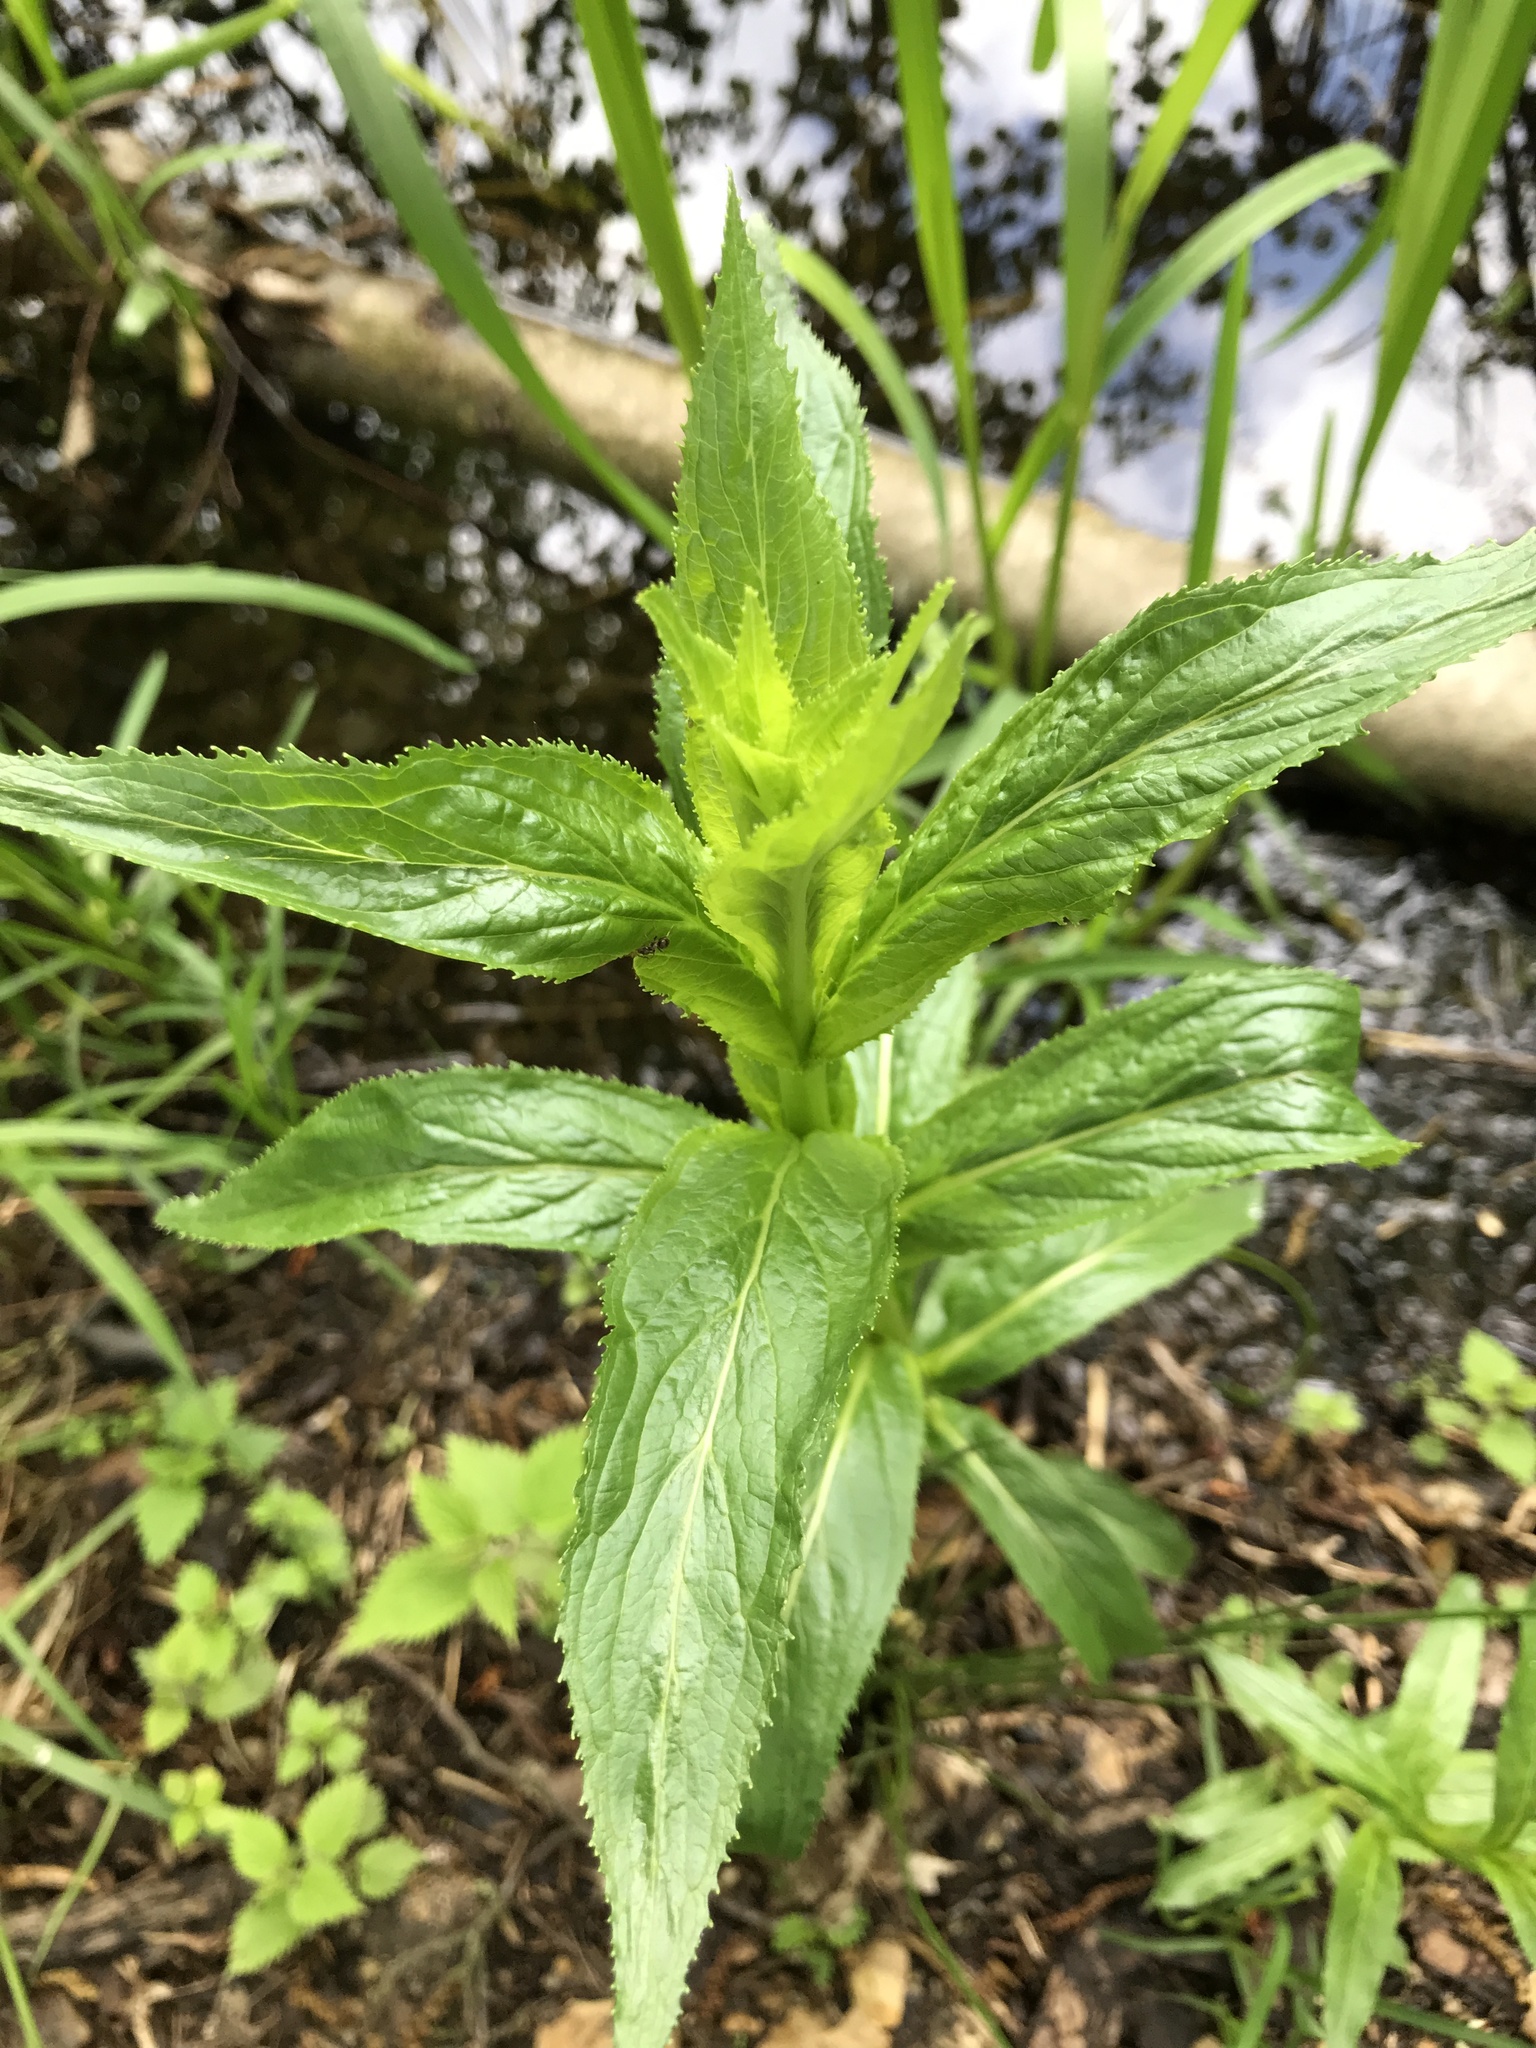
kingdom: Plantae
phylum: Tracheophyta
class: Magnoliopsida
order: Myrtales
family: Onagraceae
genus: Epilobium
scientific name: Epilobium montanum
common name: Broad-leaved willowherb
